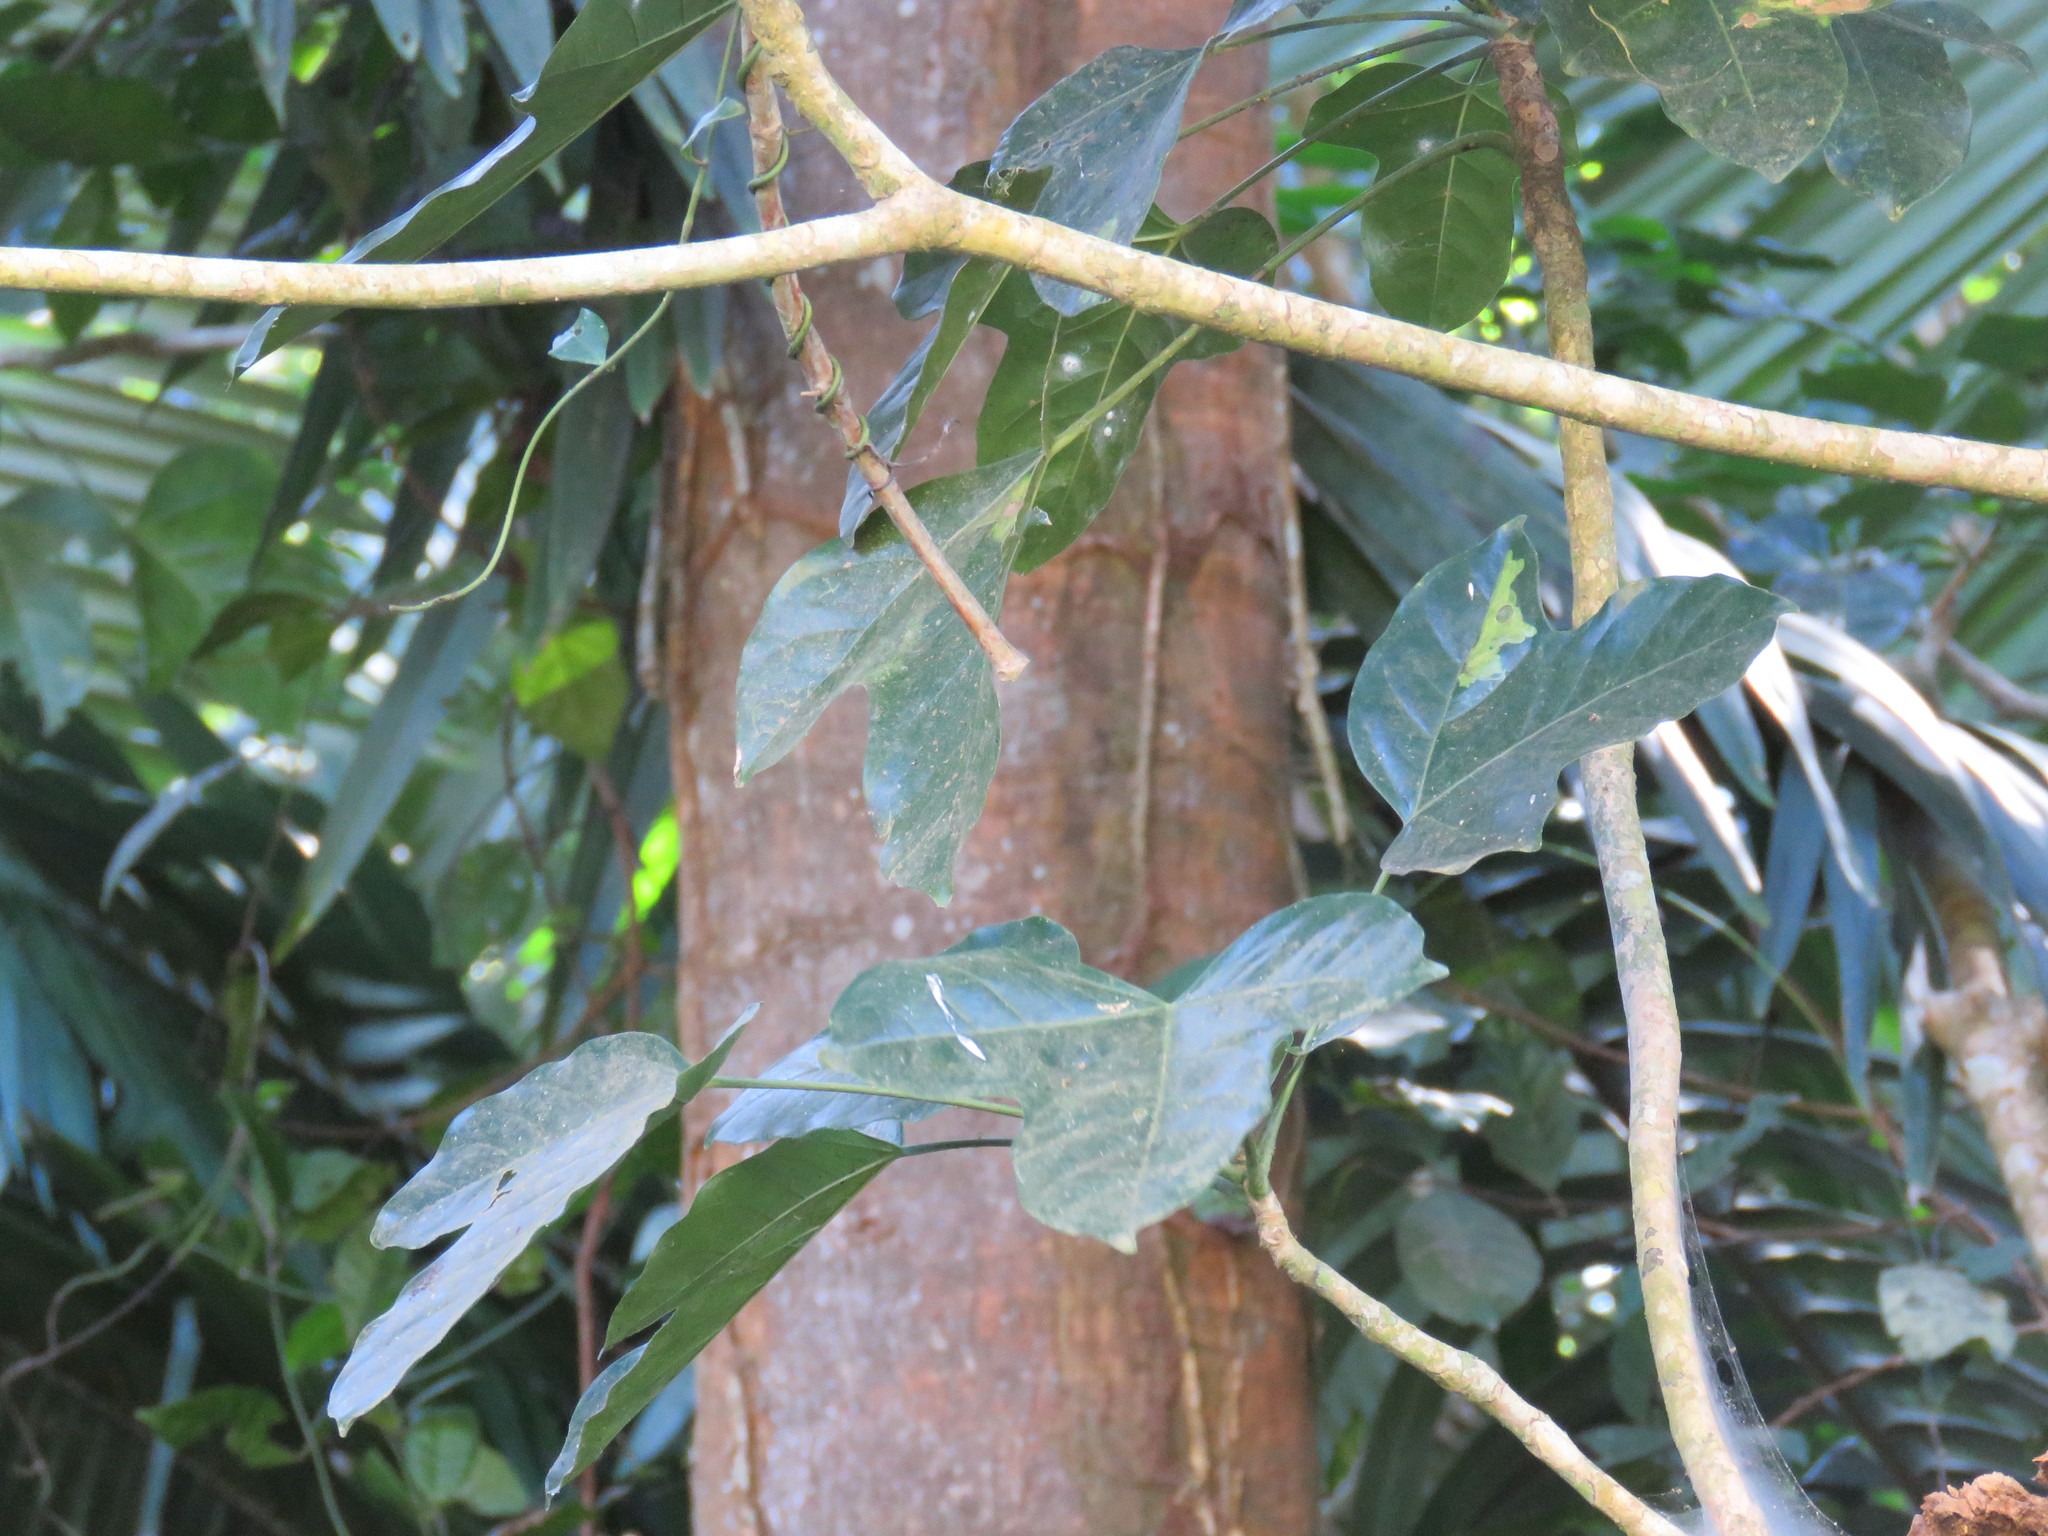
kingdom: Plantae
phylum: Tracheophyta
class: Magnoliopsida
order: Apiales
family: Araliaceae
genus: Dendropanax
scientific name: Dendropanax arboreus
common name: Potato-wood
